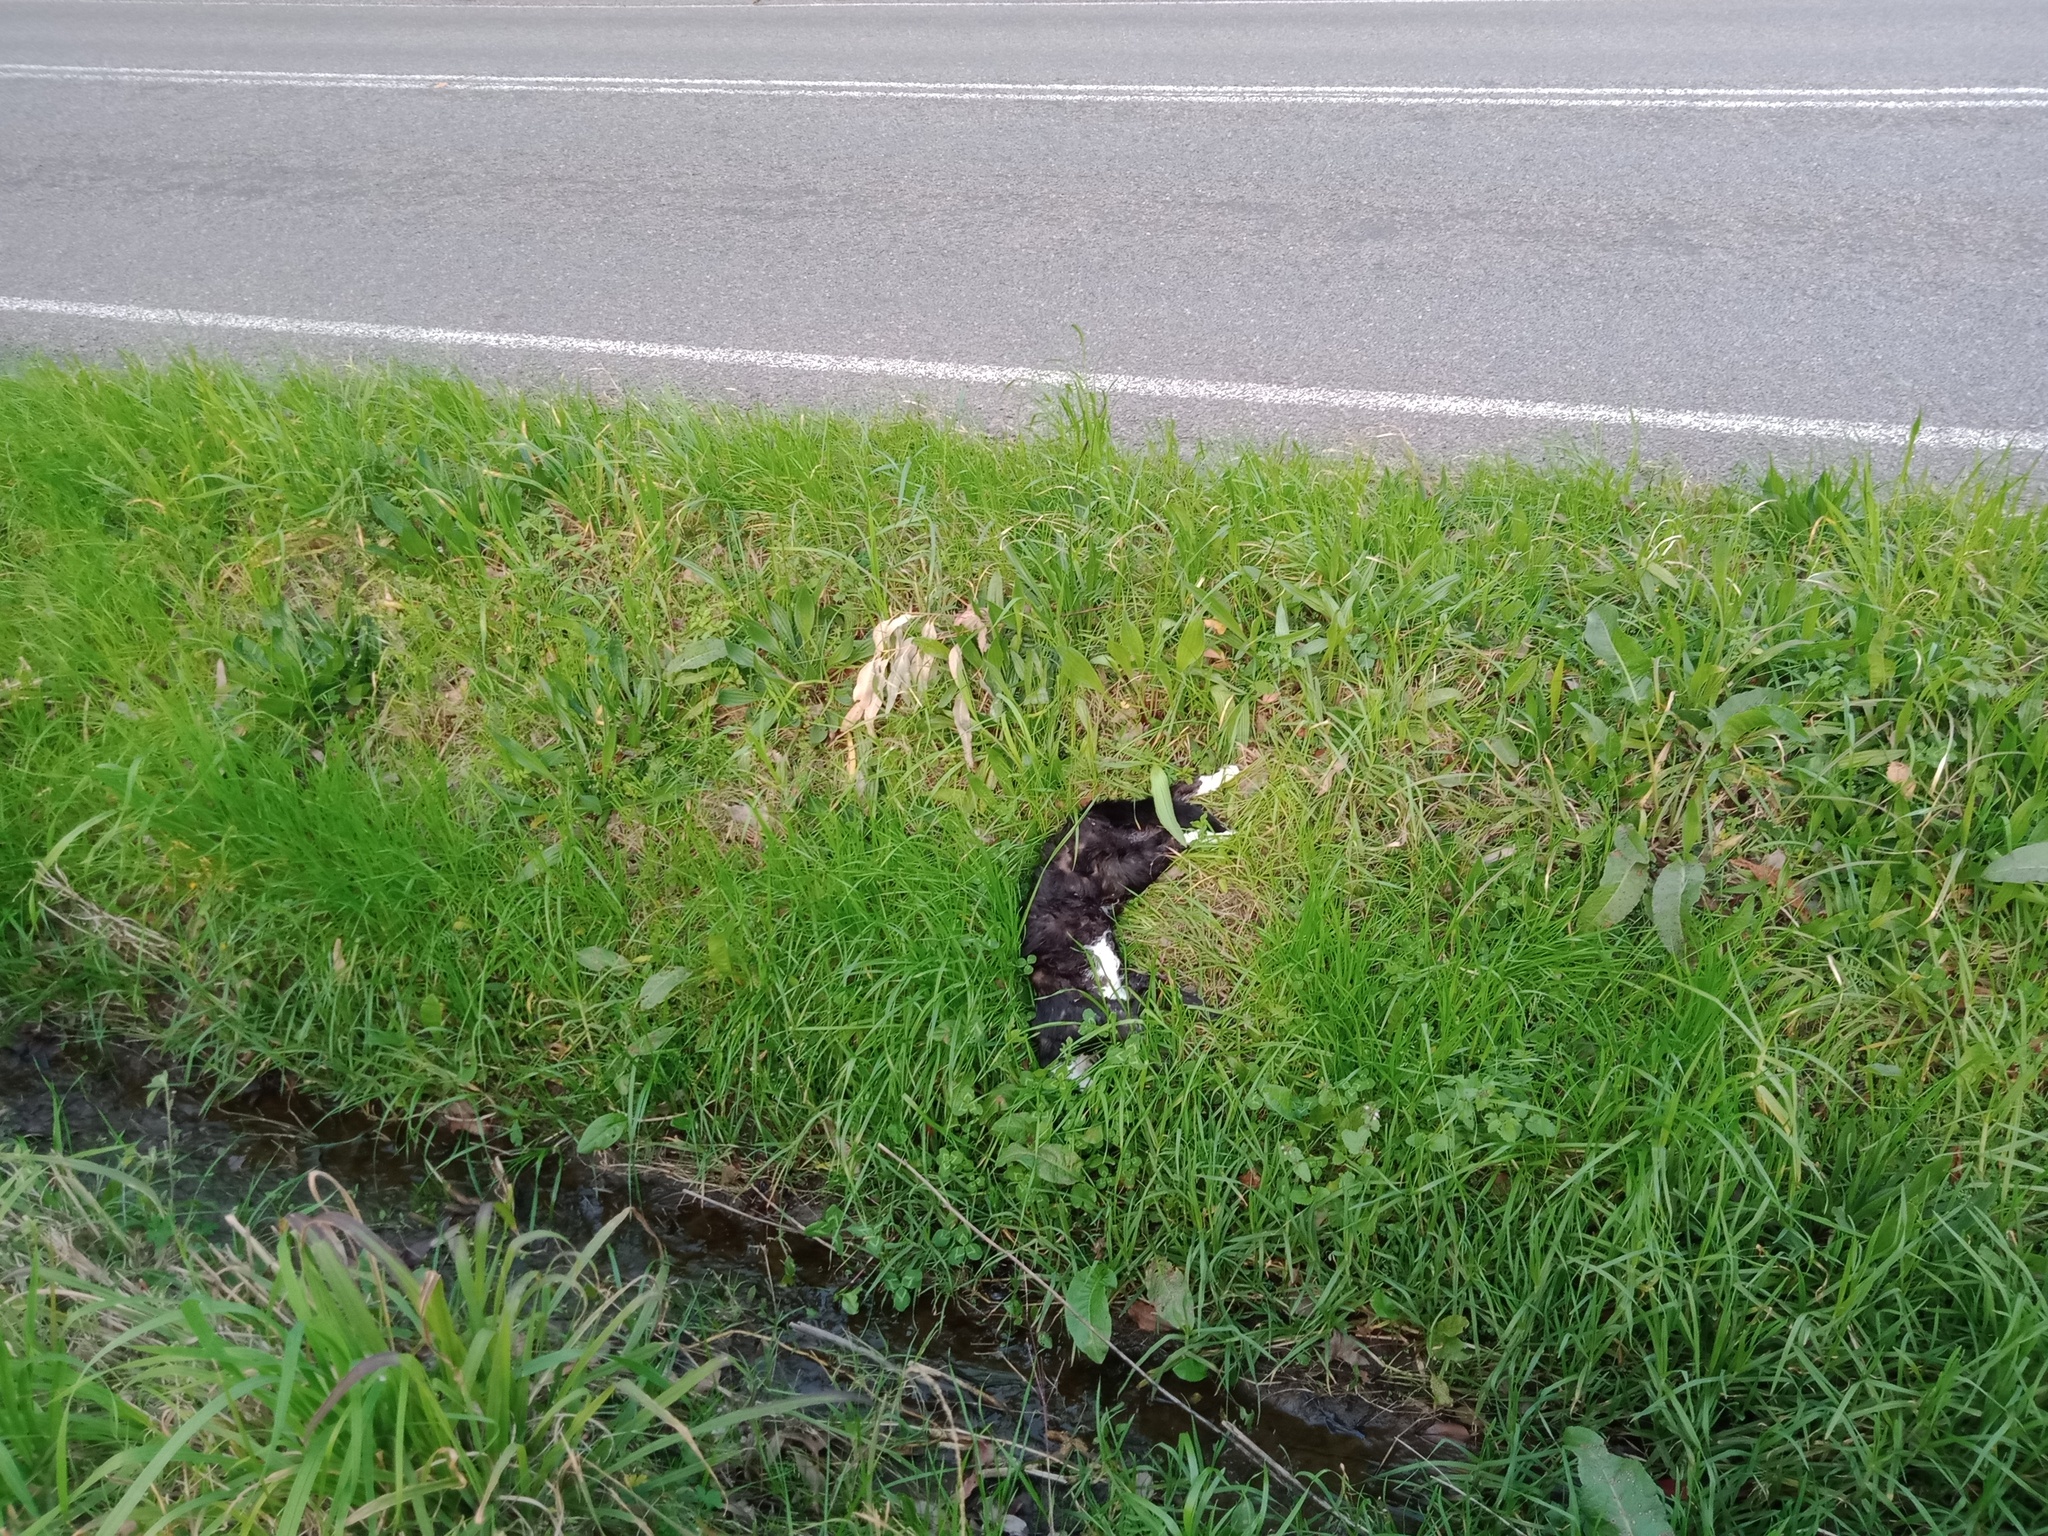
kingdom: Animalia
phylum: Chordata
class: Mammalia
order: Carnivora
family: Felidae
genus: Felis
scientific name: Felis catus
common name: Domestic cat
